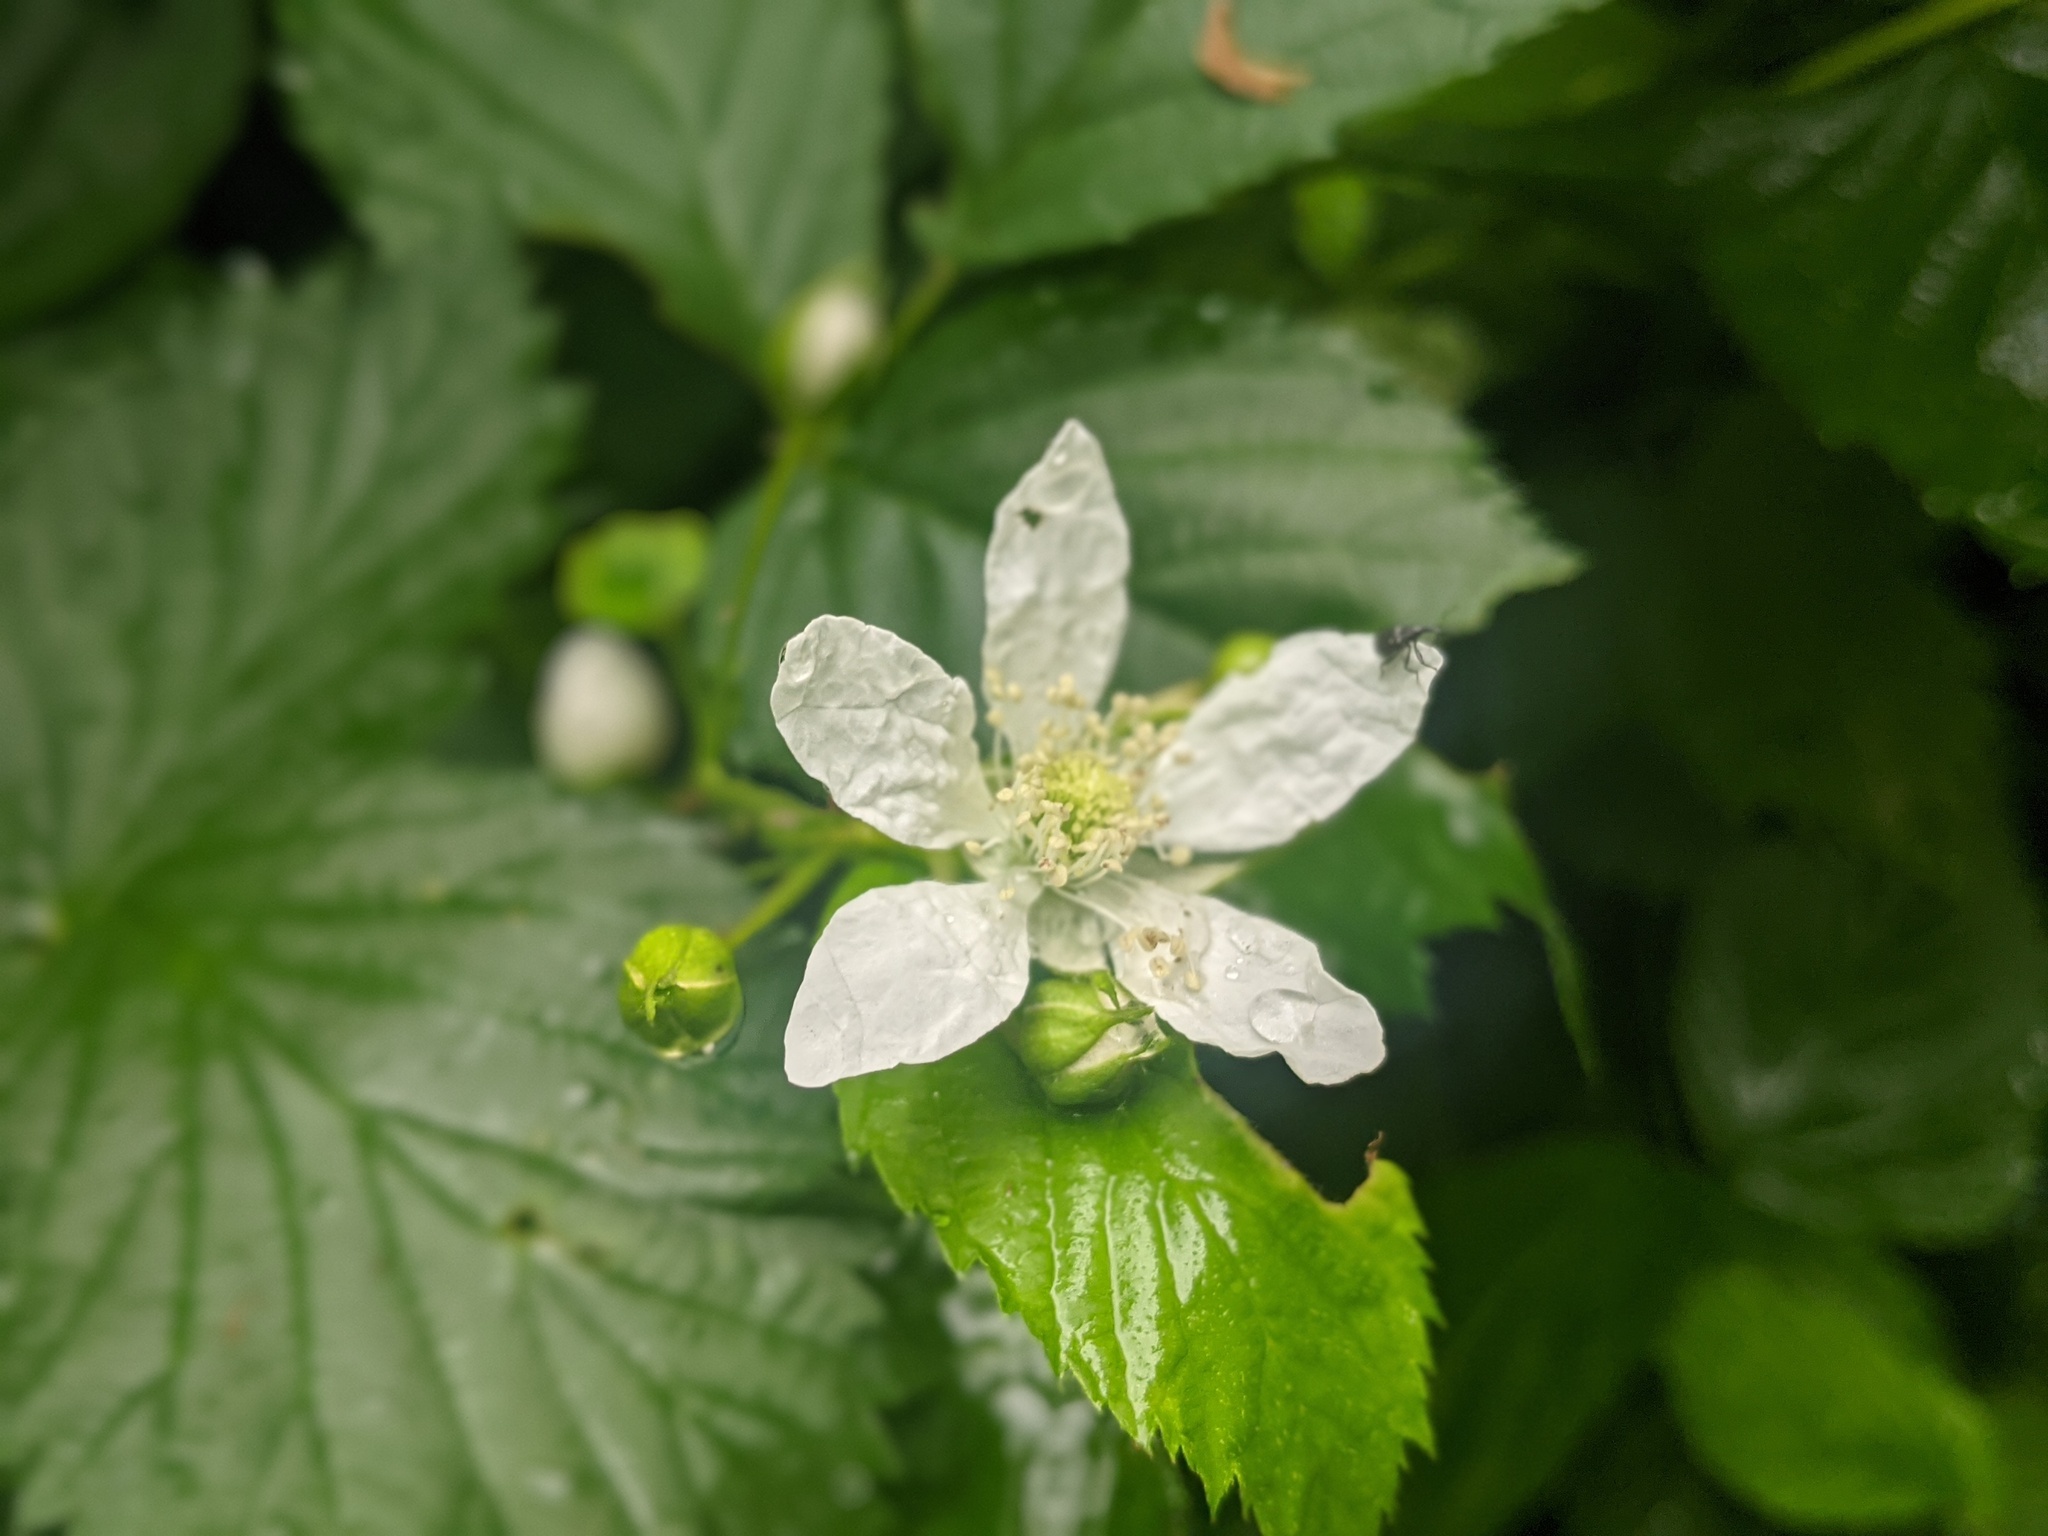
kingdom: Plantae
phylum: Tracheophyta
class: Magnoliopsida
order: Rosales
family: Rosaceae
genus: Rubus
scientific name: Rubus caesius
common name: Dewberry
